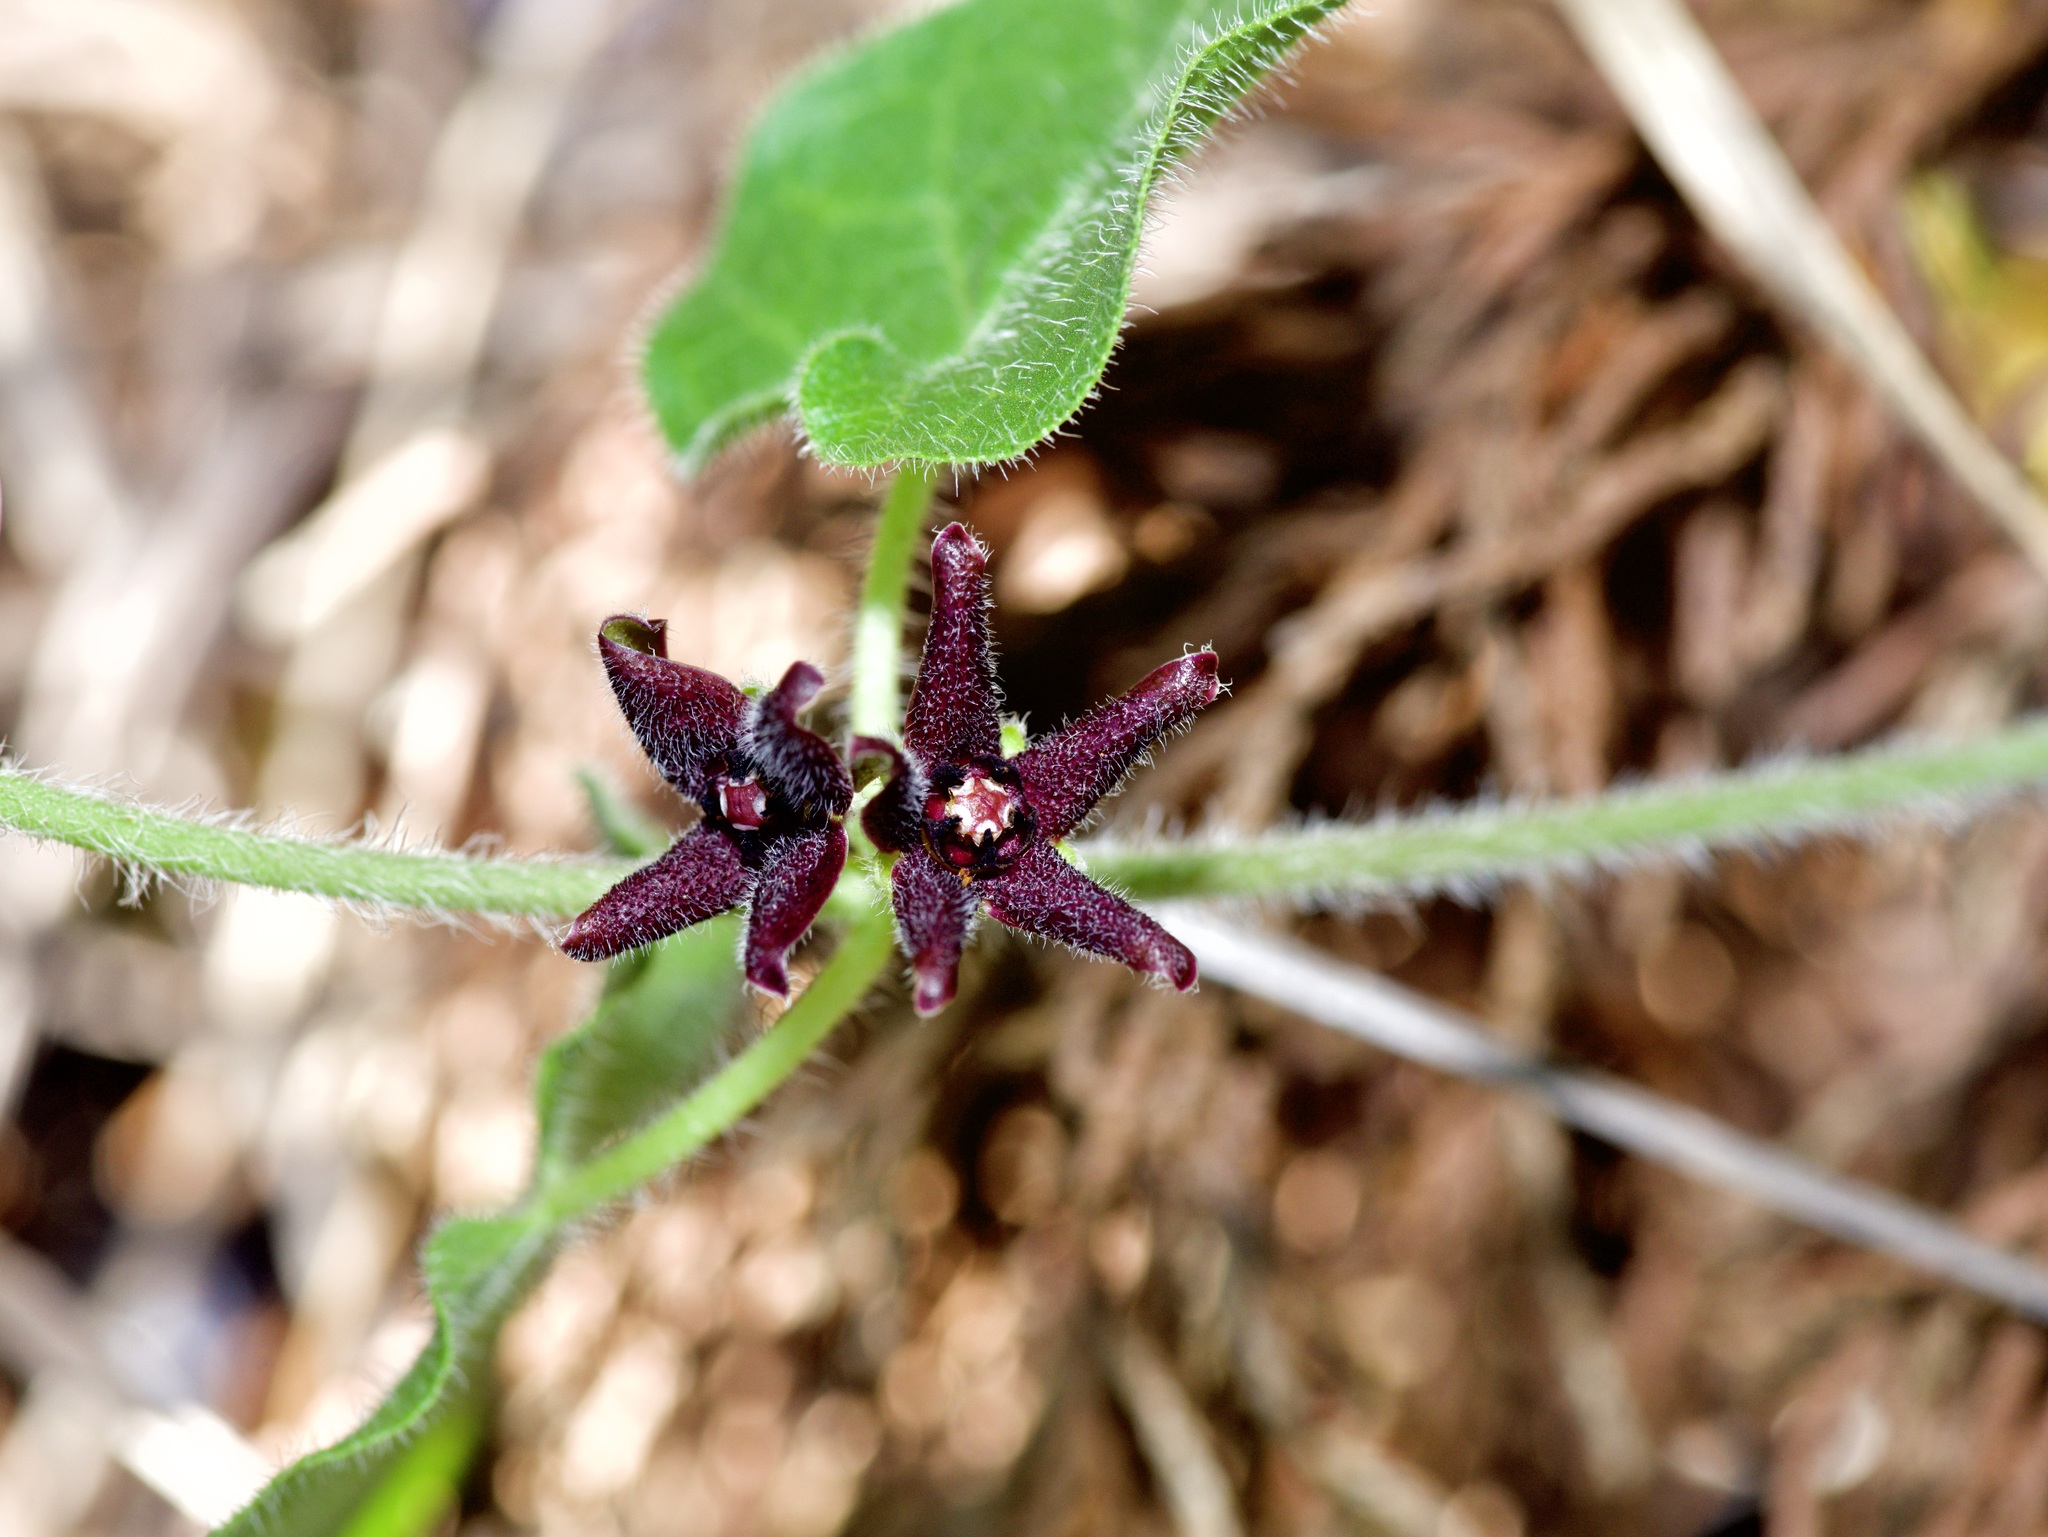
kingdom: Plantae
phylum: Tracheophyta
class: Magnoliopsida
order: Gentianales
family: Apocynaceae
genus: Chthamalia
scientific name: Chthamalia biflora
